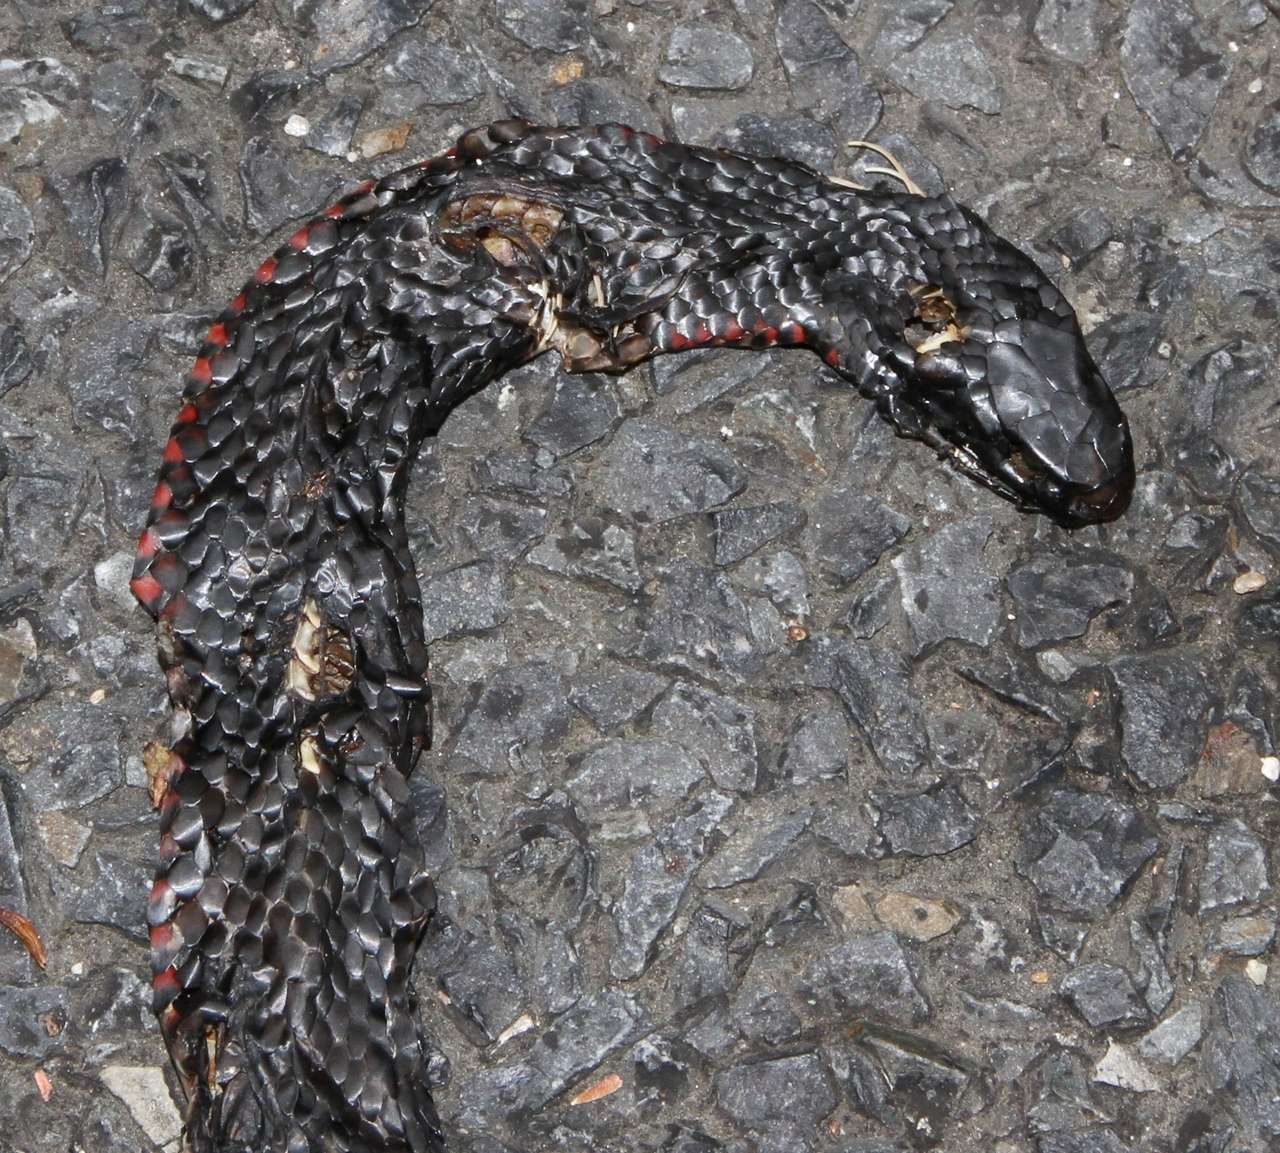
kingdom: Animalia
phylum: Chordata
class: Squamata
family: Elapidae
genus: Pseudechis
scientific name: Pseudechis porphyriacus
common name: Australian black snake
